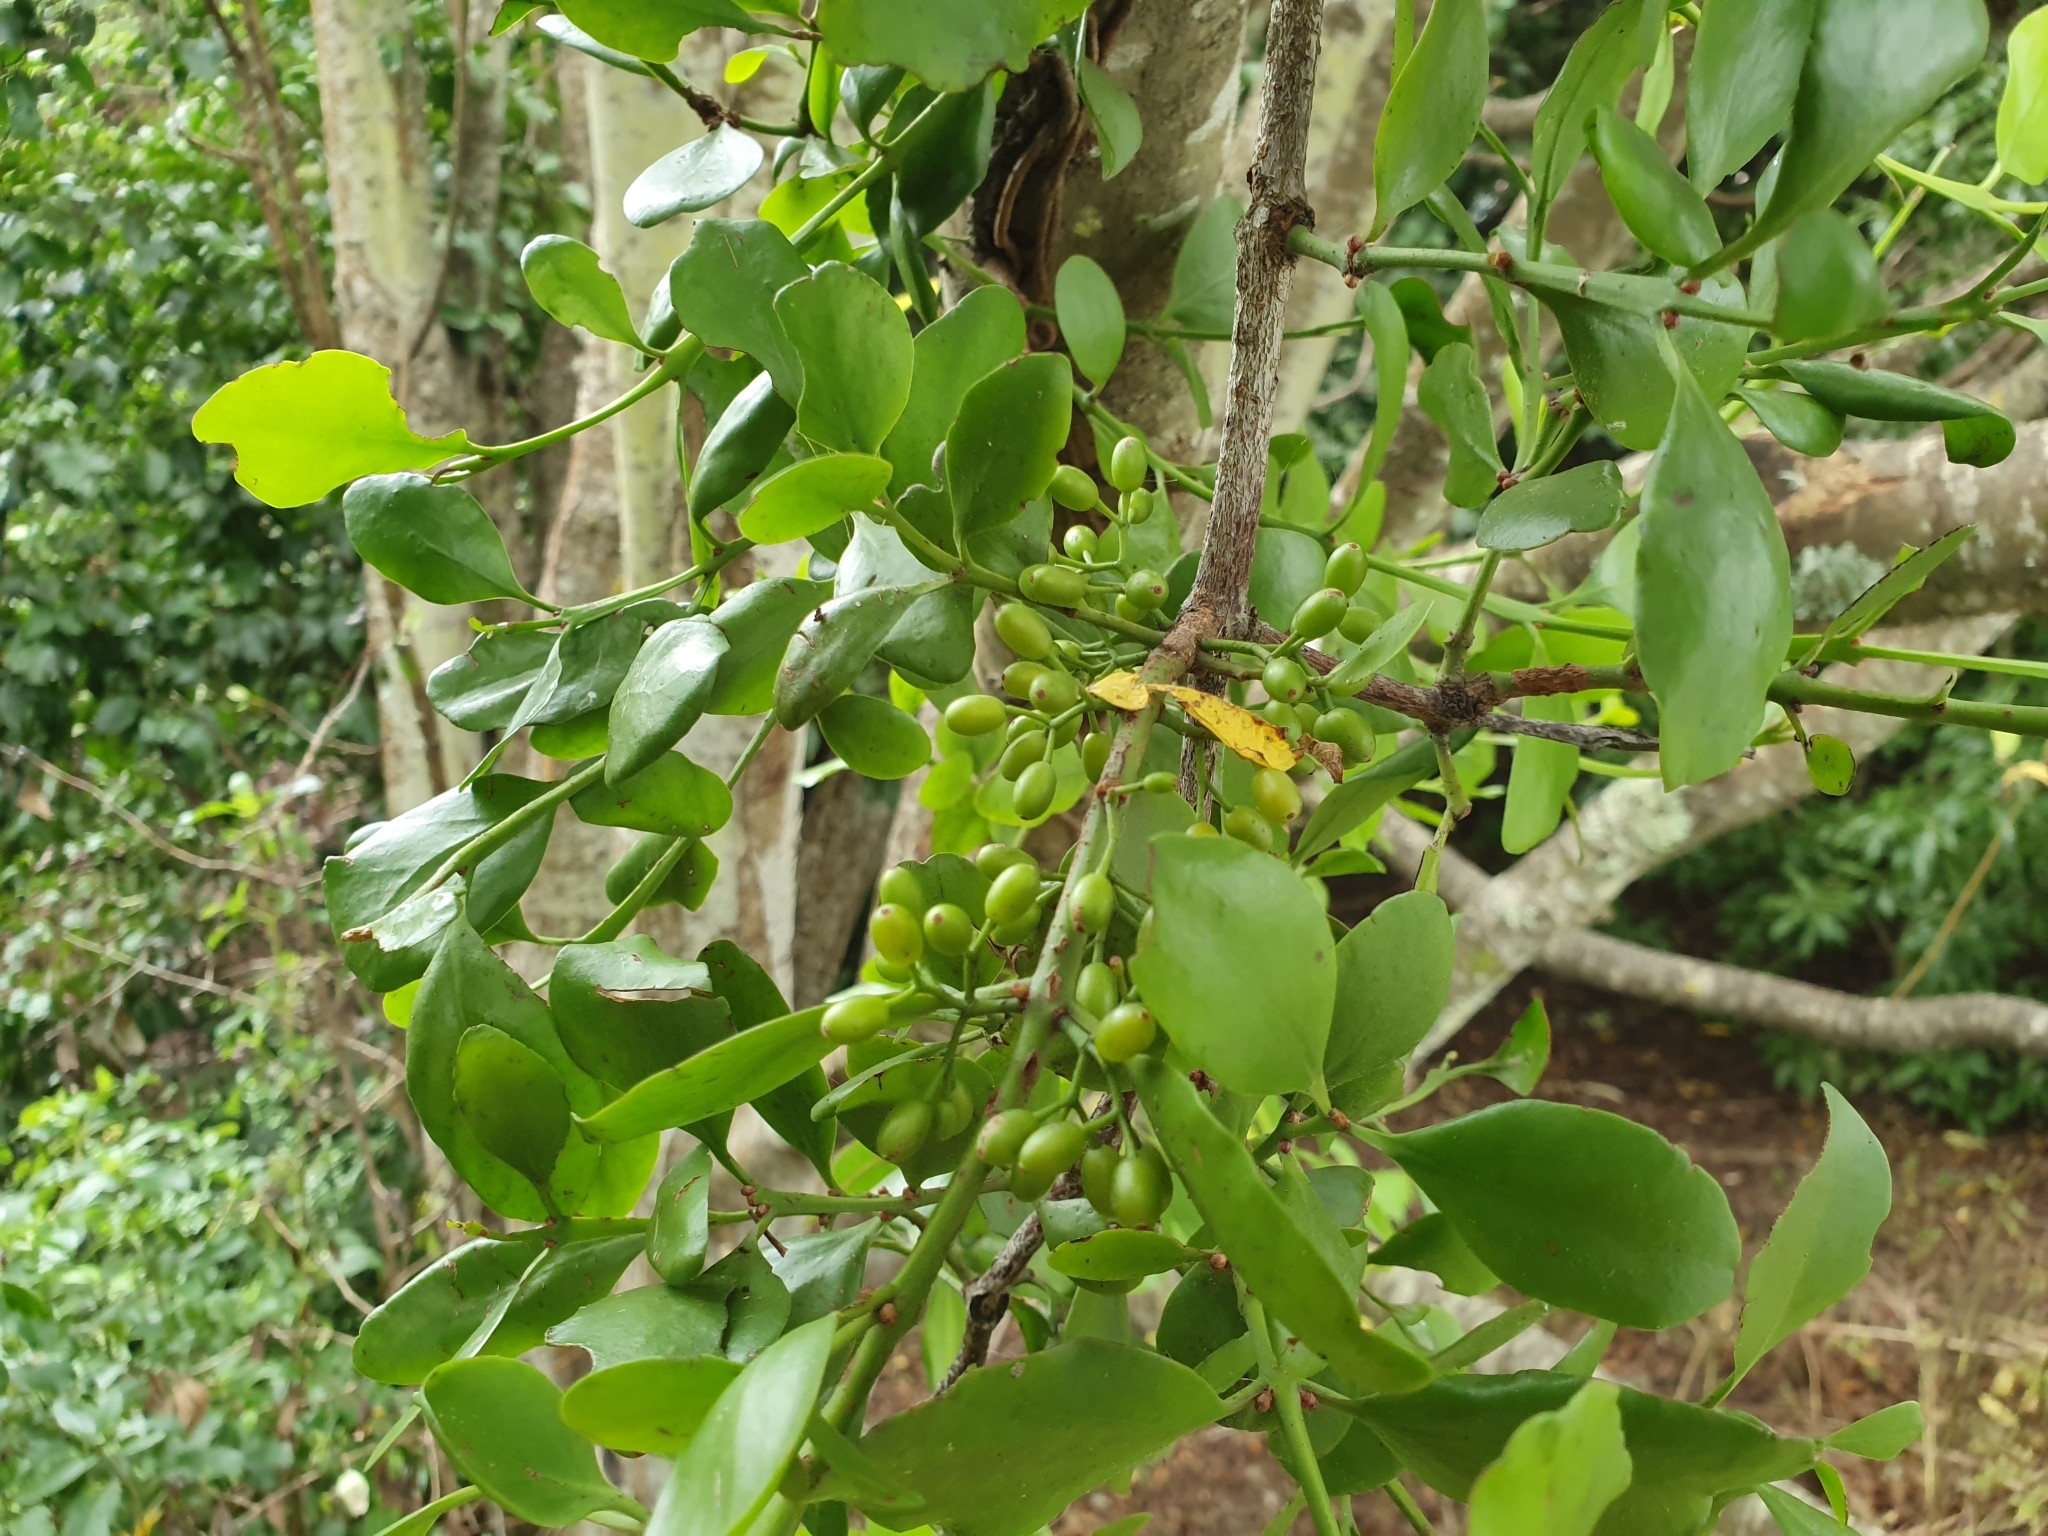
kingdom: Plantae
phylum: Tracheophyta
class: Magnoliopsida
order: Santalales
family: Loranthaceae
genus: Ileostylus
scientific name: Ileostylus micranthus
